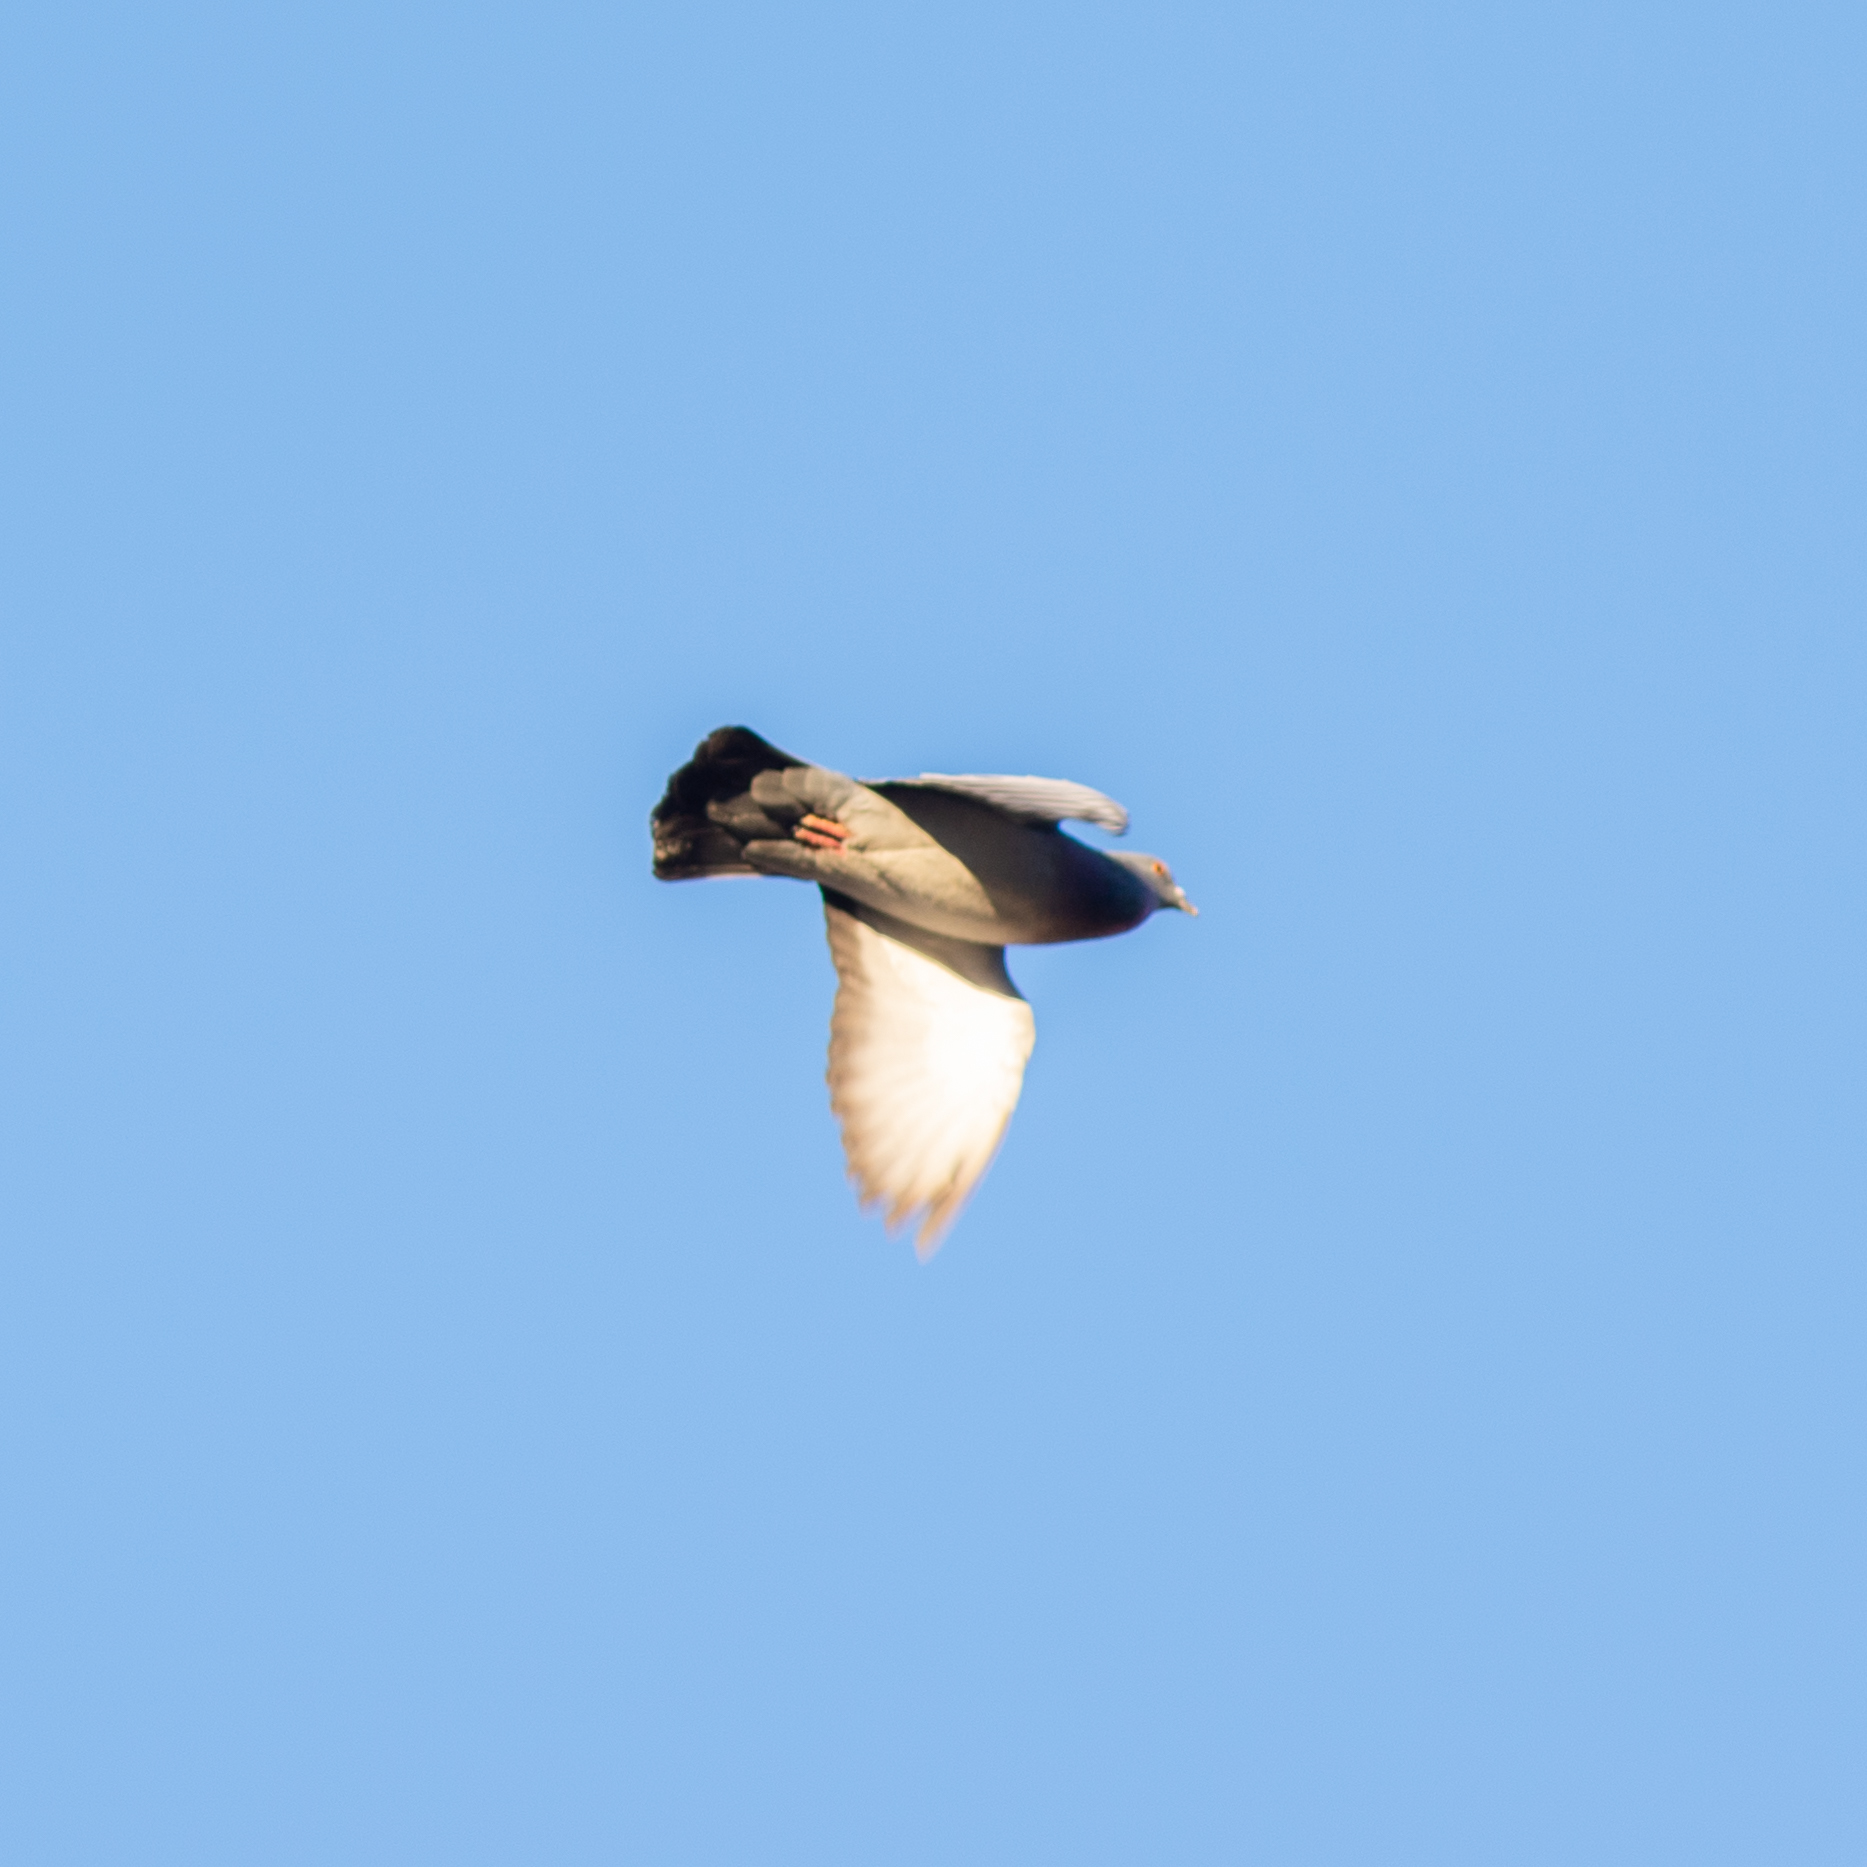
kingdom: Animalia
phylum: Chordata
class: Aves
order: Columbiformes
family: Columbidae
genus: Columba
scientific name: Columba livia
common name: Rock pigeon
